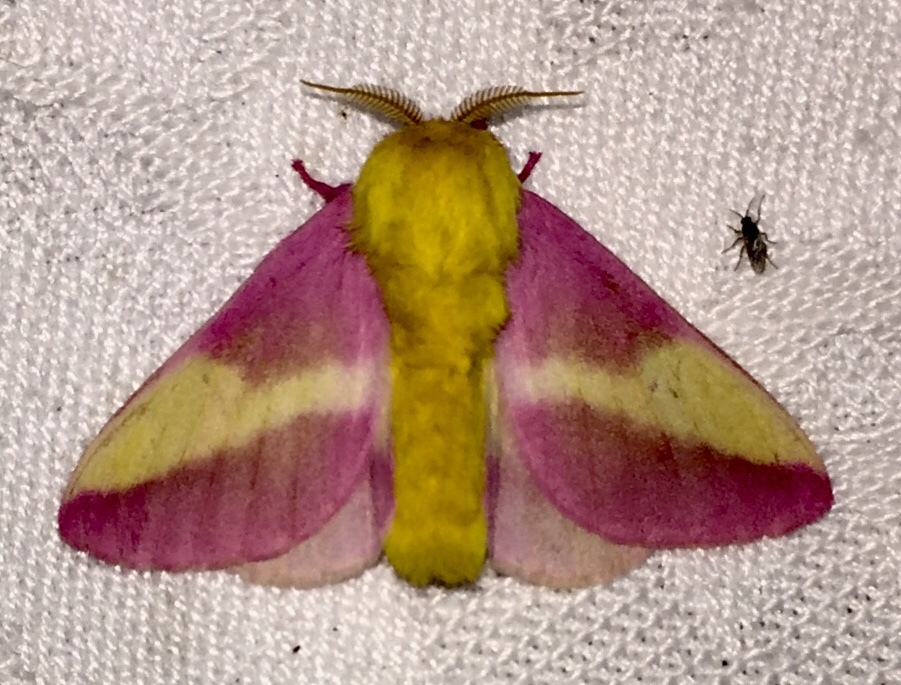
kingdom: Animalia
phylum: Arthropoda
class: Insecta
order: Lepidoptera
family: Saturniidae
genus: Dryocampa
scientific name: Dryocampa rubicunda
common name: Rosy maple moth
